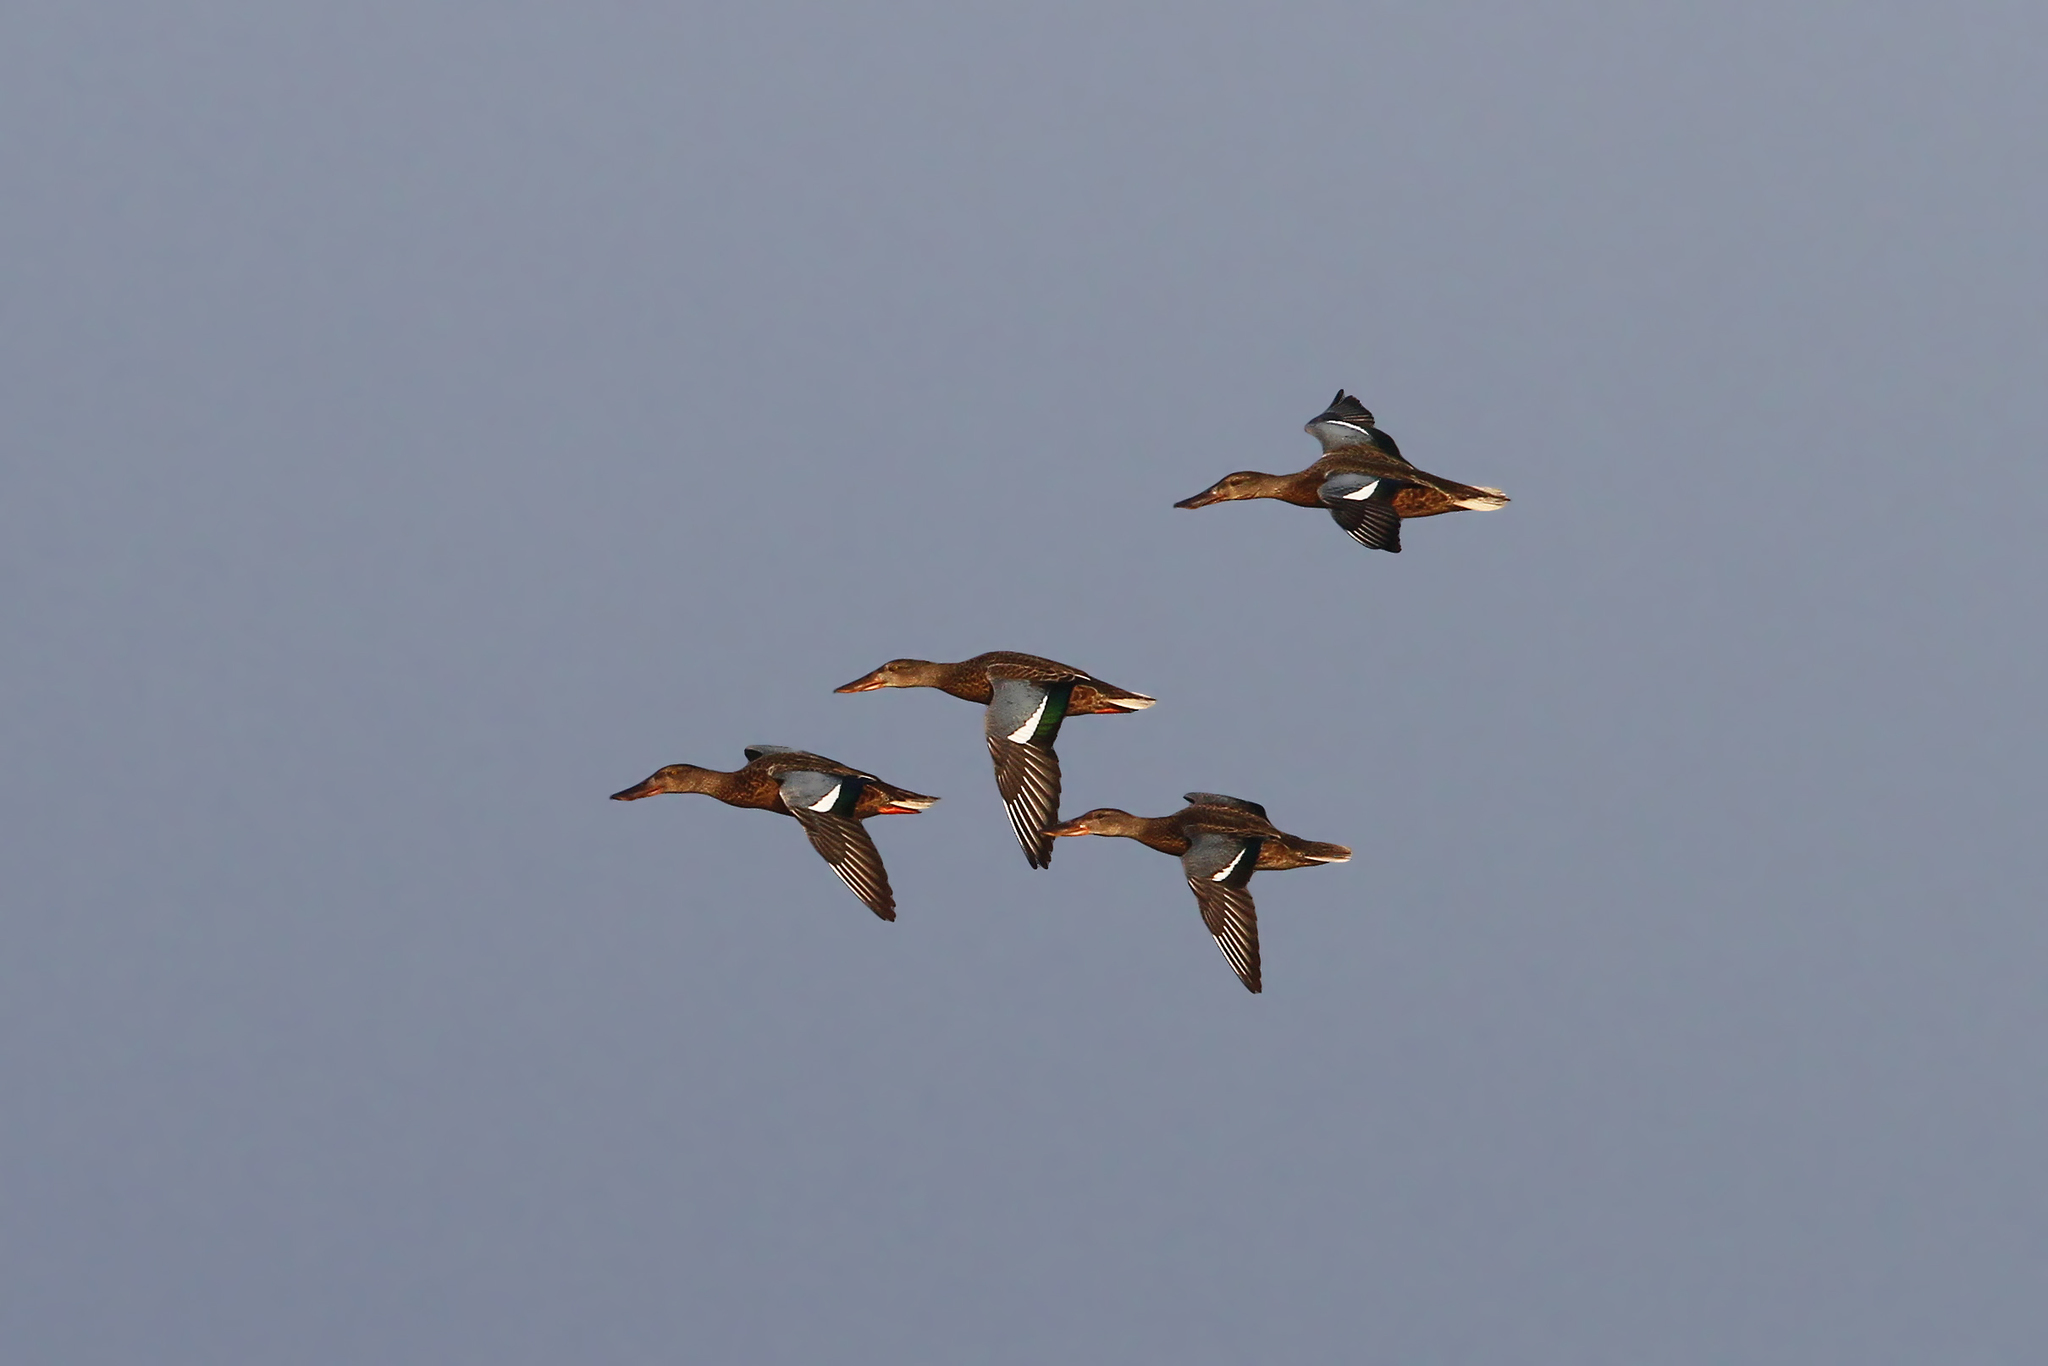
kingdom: Animalia
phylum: Chordata
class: Aves
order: Anseriformes
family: Anatidae
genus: Spatula
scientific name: Spatula clypeata
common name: Northern shoveler
